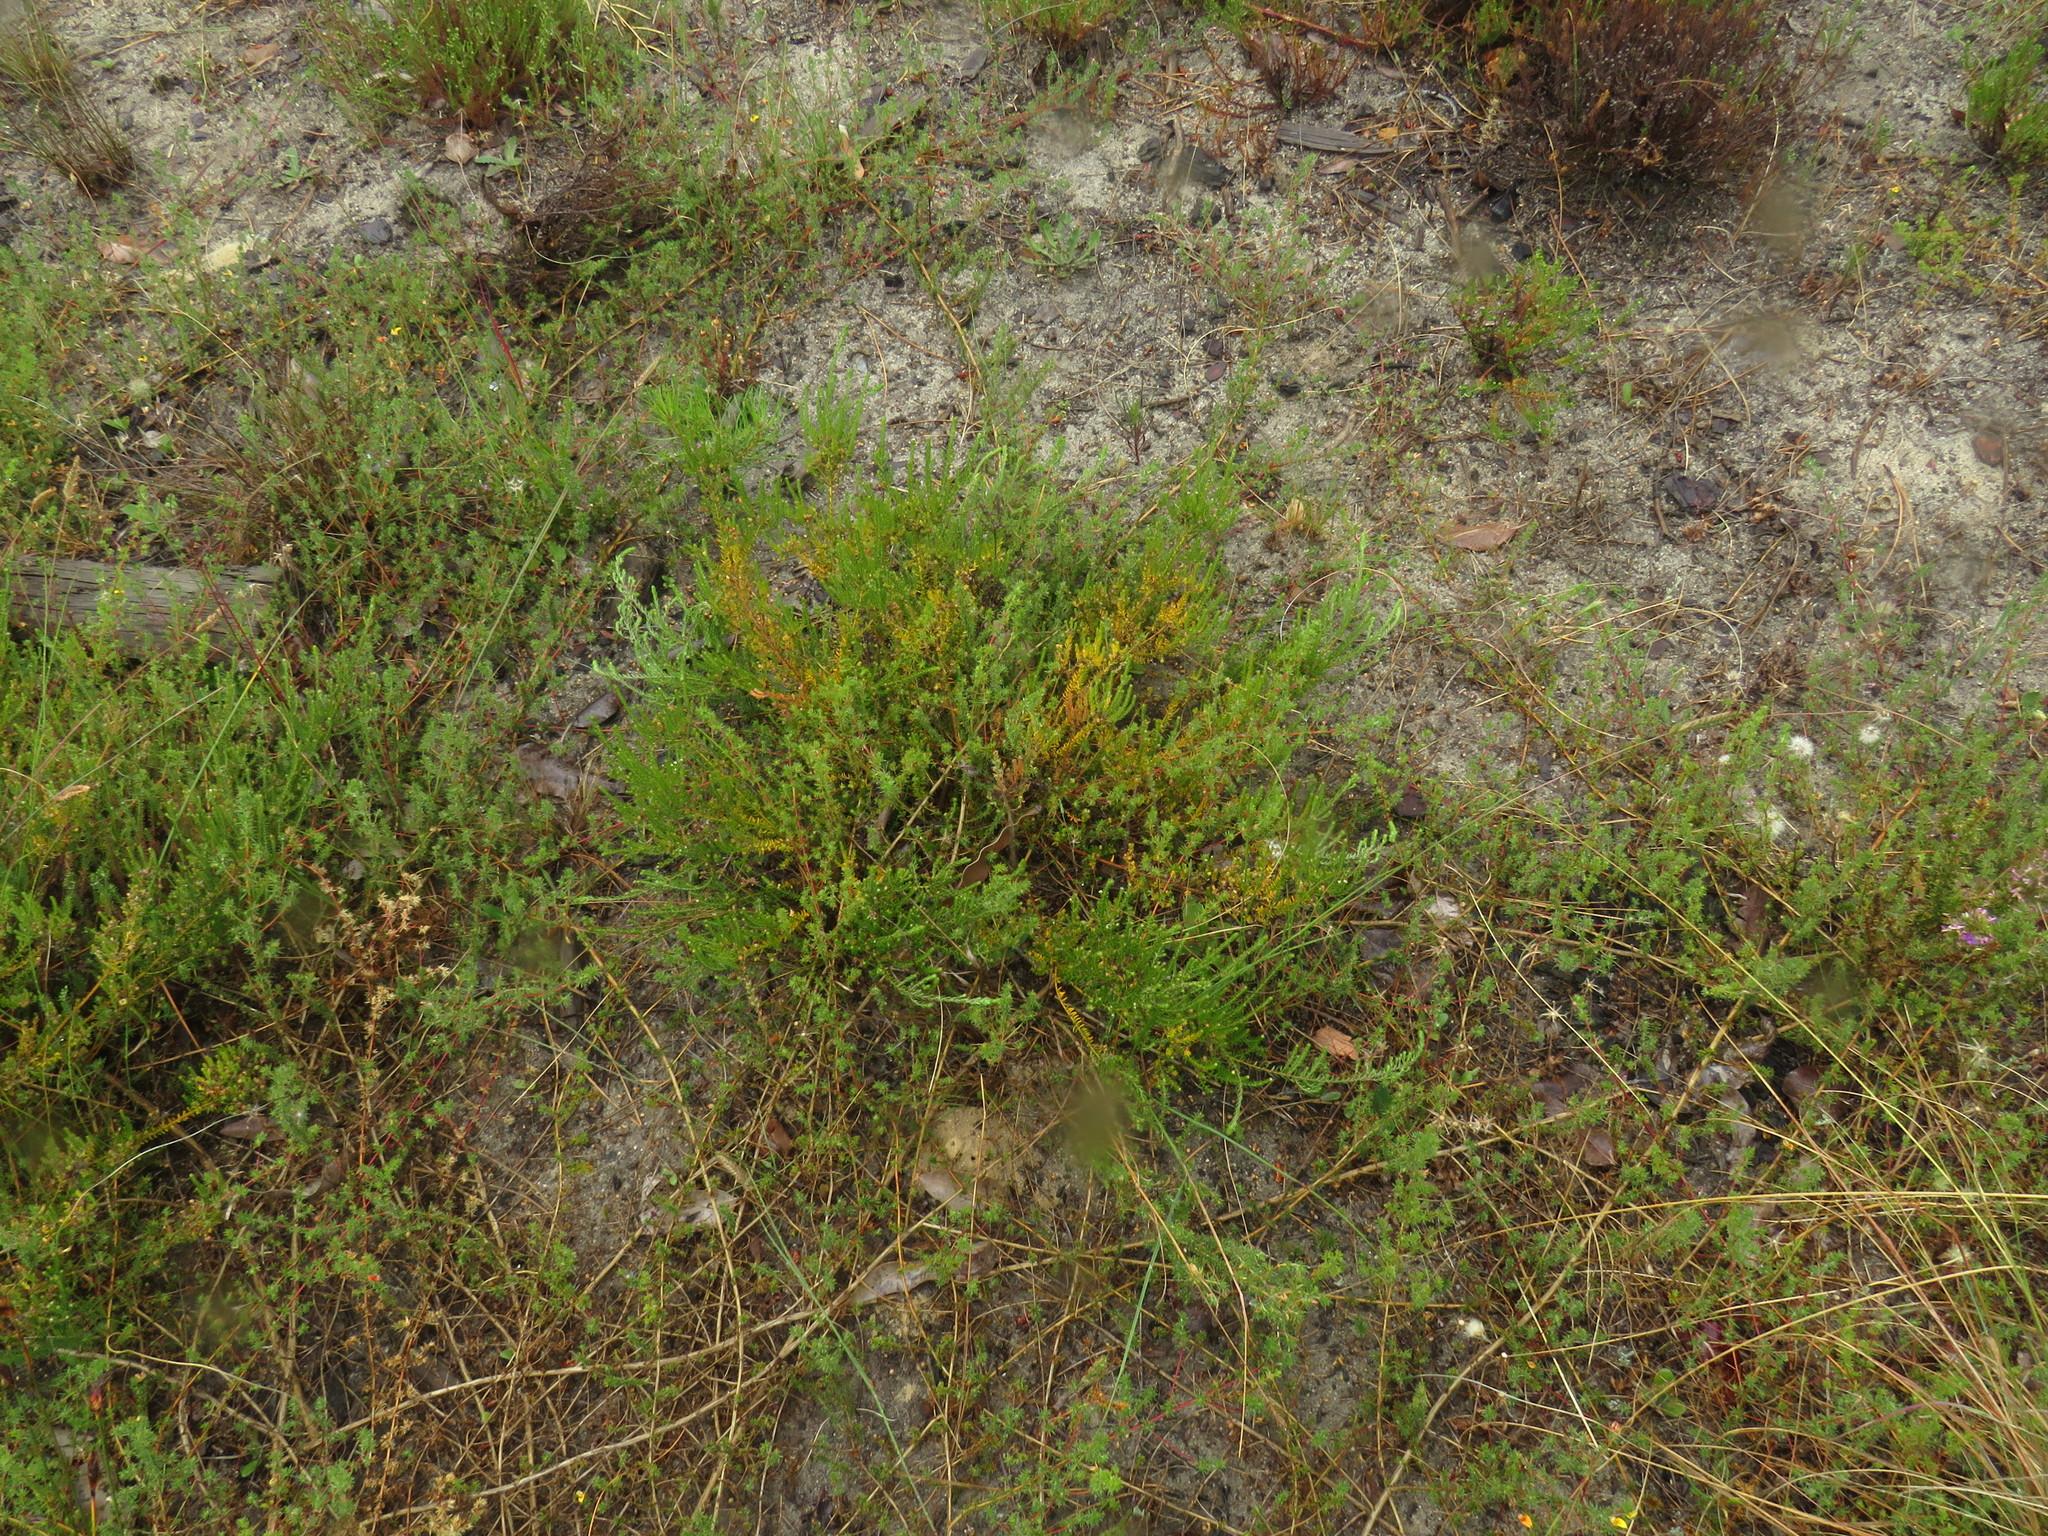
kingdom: Plantae
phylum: Tracheophyta
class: Magnoliopsida
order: Rosales
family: Rhamnaceae
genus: Phylica
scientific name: Phylica ericoides
